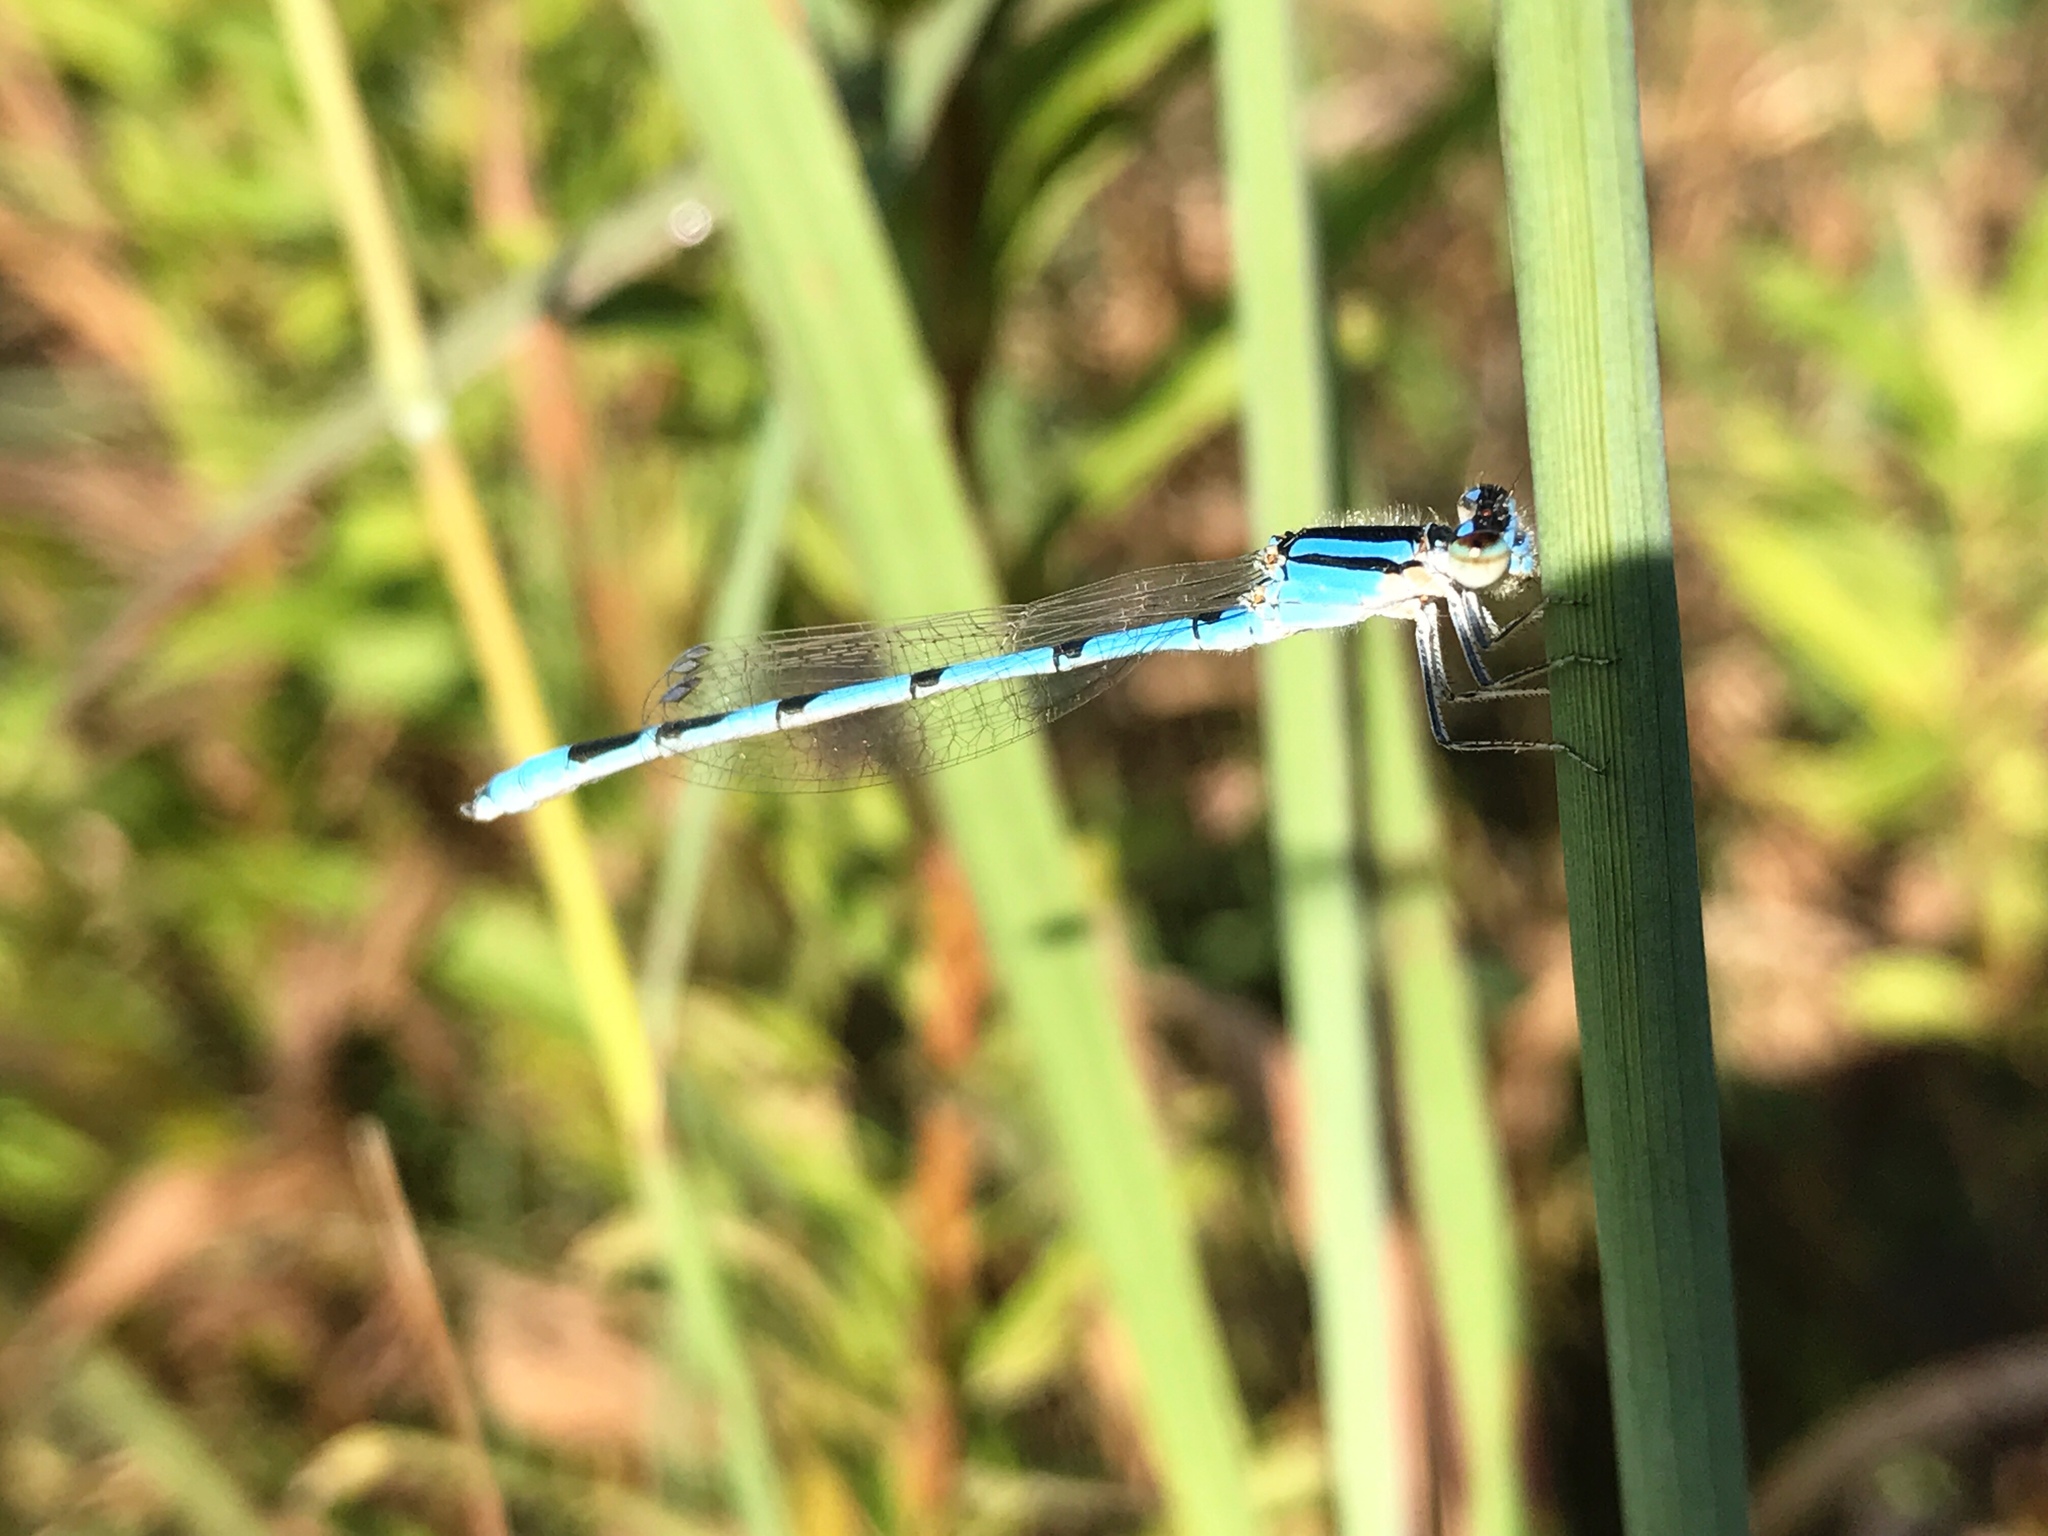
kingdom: Animalia
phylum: Arthropoda
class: Insecta
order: Odonata
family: Coenagrionidae
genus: Enallagma
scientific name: Enallagma civile
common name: Damselfly
